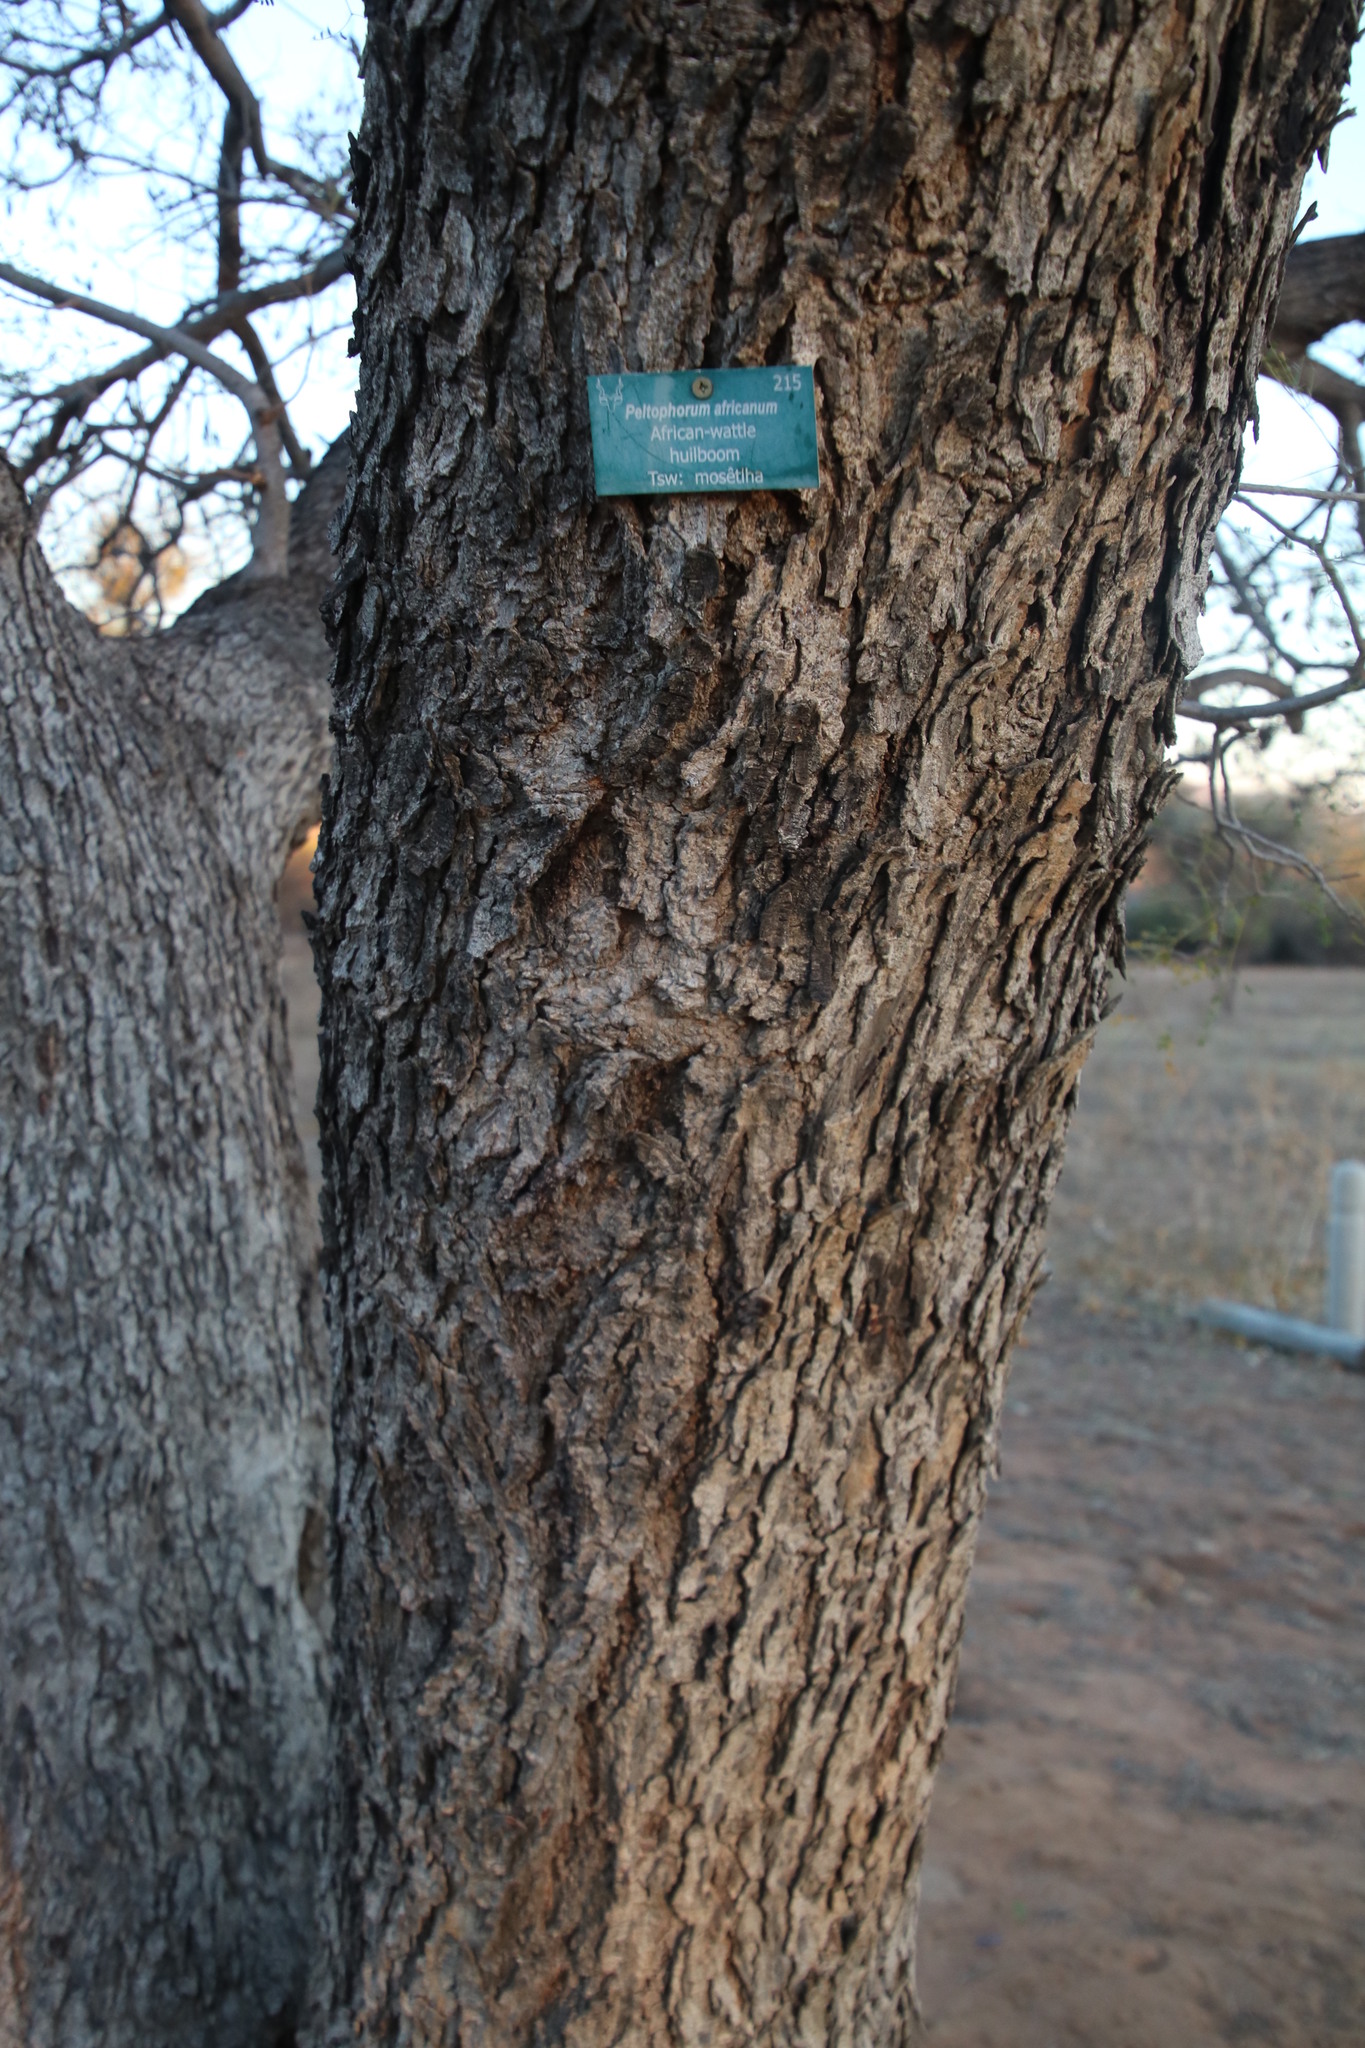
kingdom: Plantae
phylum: Tracheophyta
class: Magnoliopsida
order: Fabales
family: Fabaceae
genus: Peltophorum
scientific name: Peltophorum africanum
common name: African black wattle
